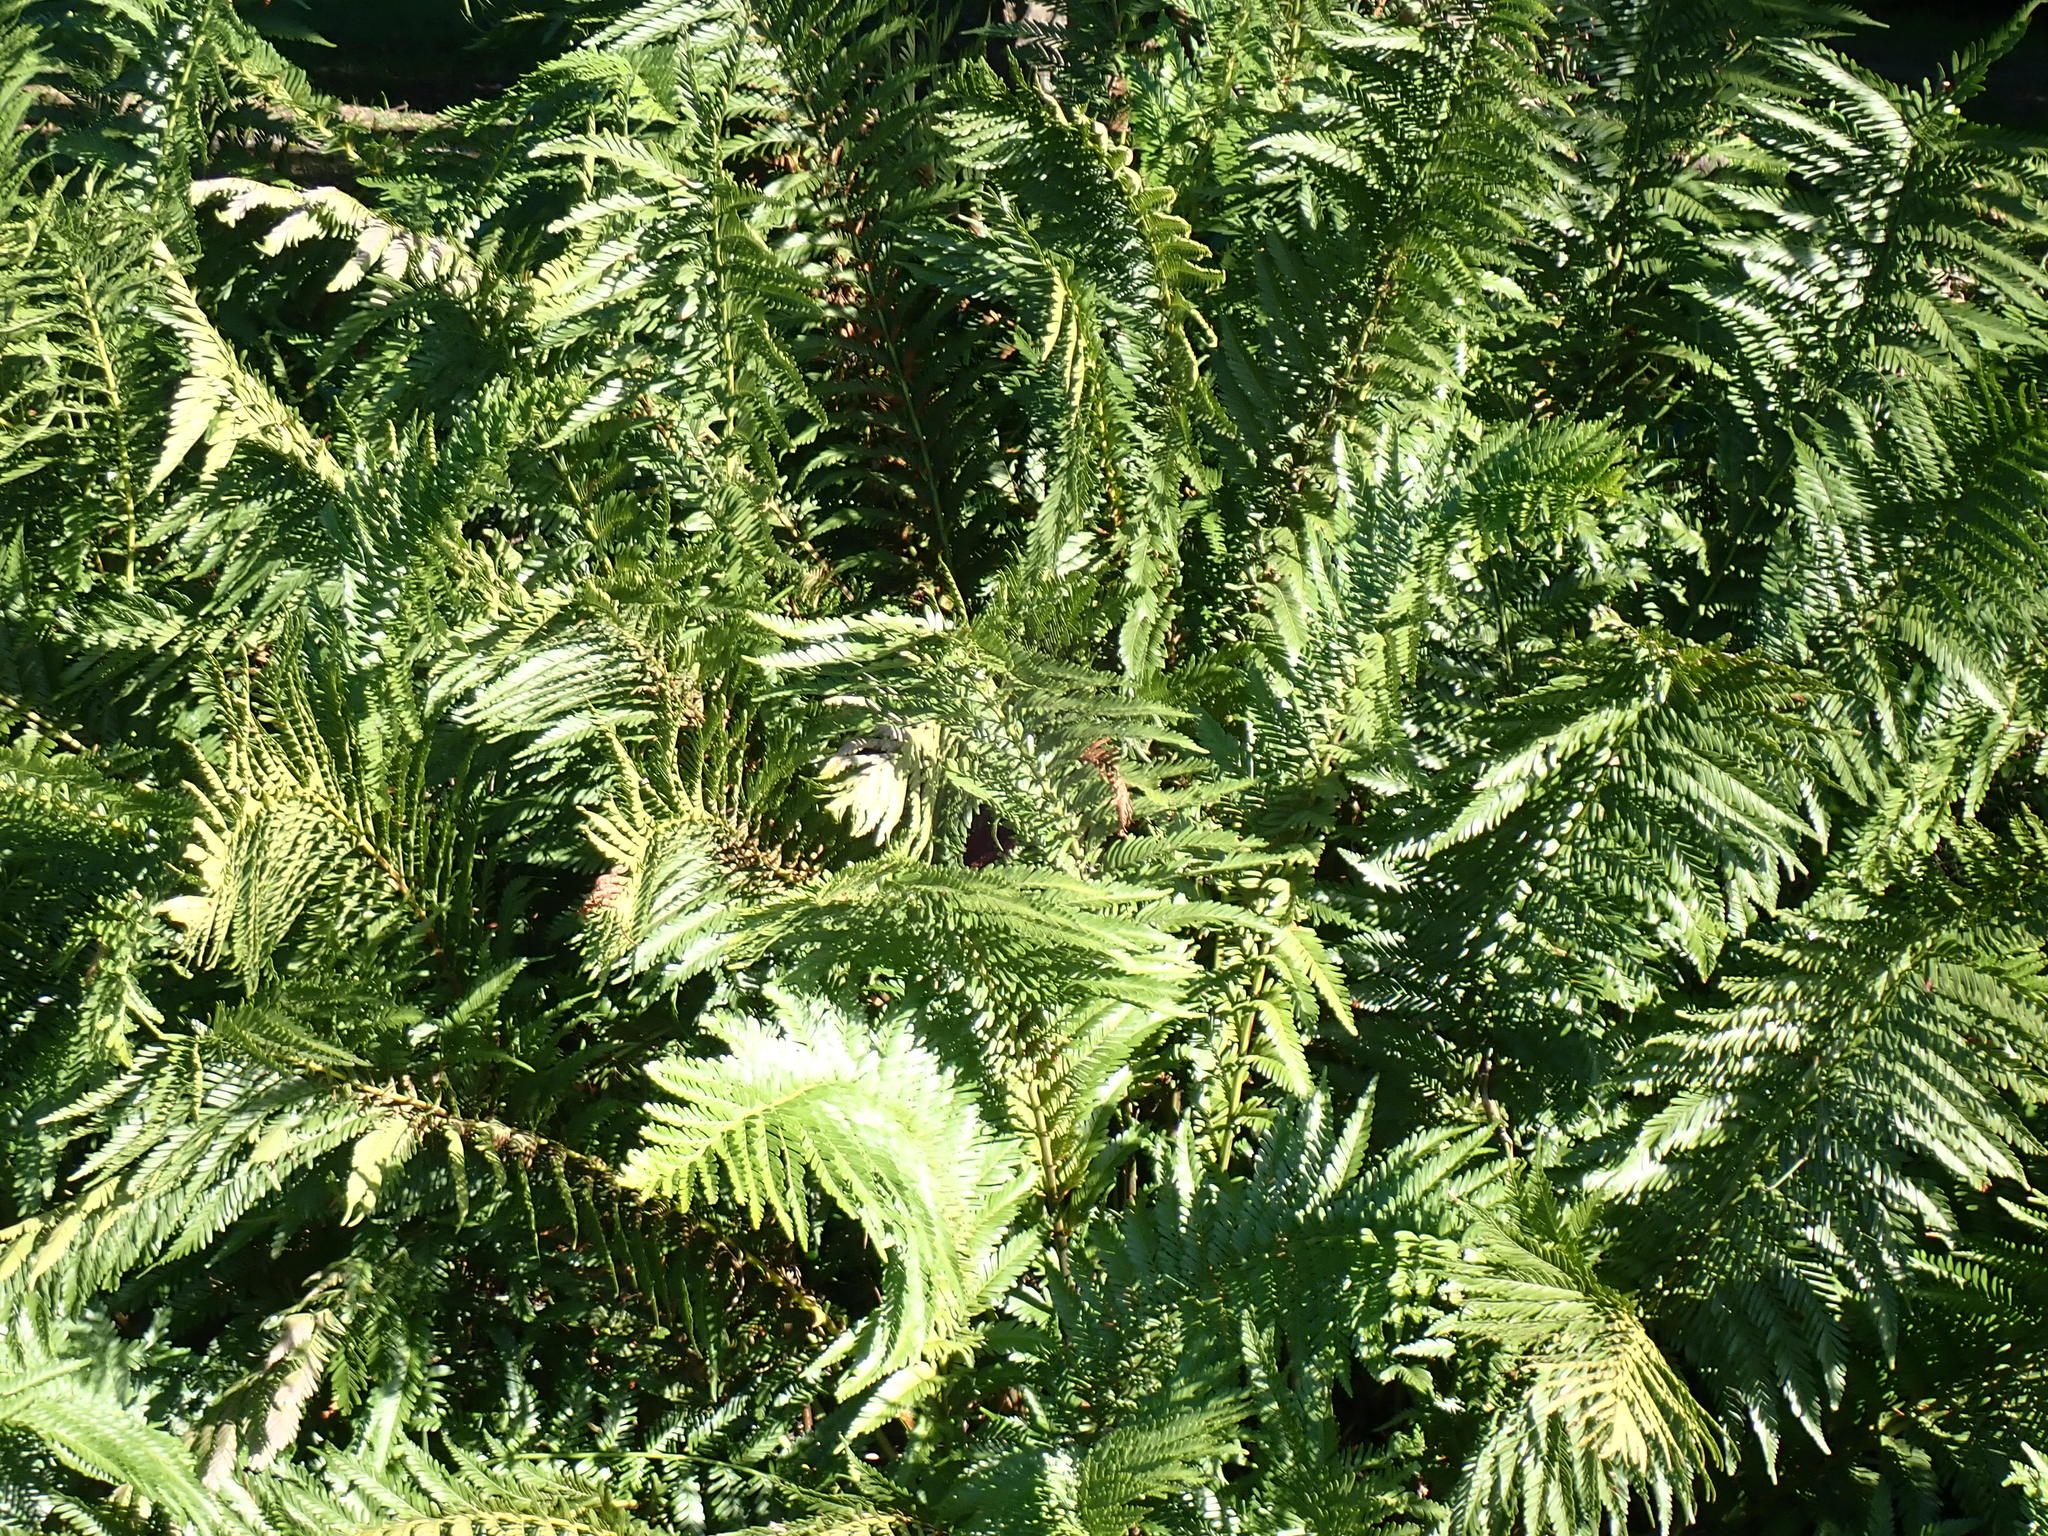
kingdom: Plantae
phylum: Tracheophyta
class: Polypodiopsida
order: Osmundales
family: Osmundaceae
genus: Todea
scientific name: Todea barbara
